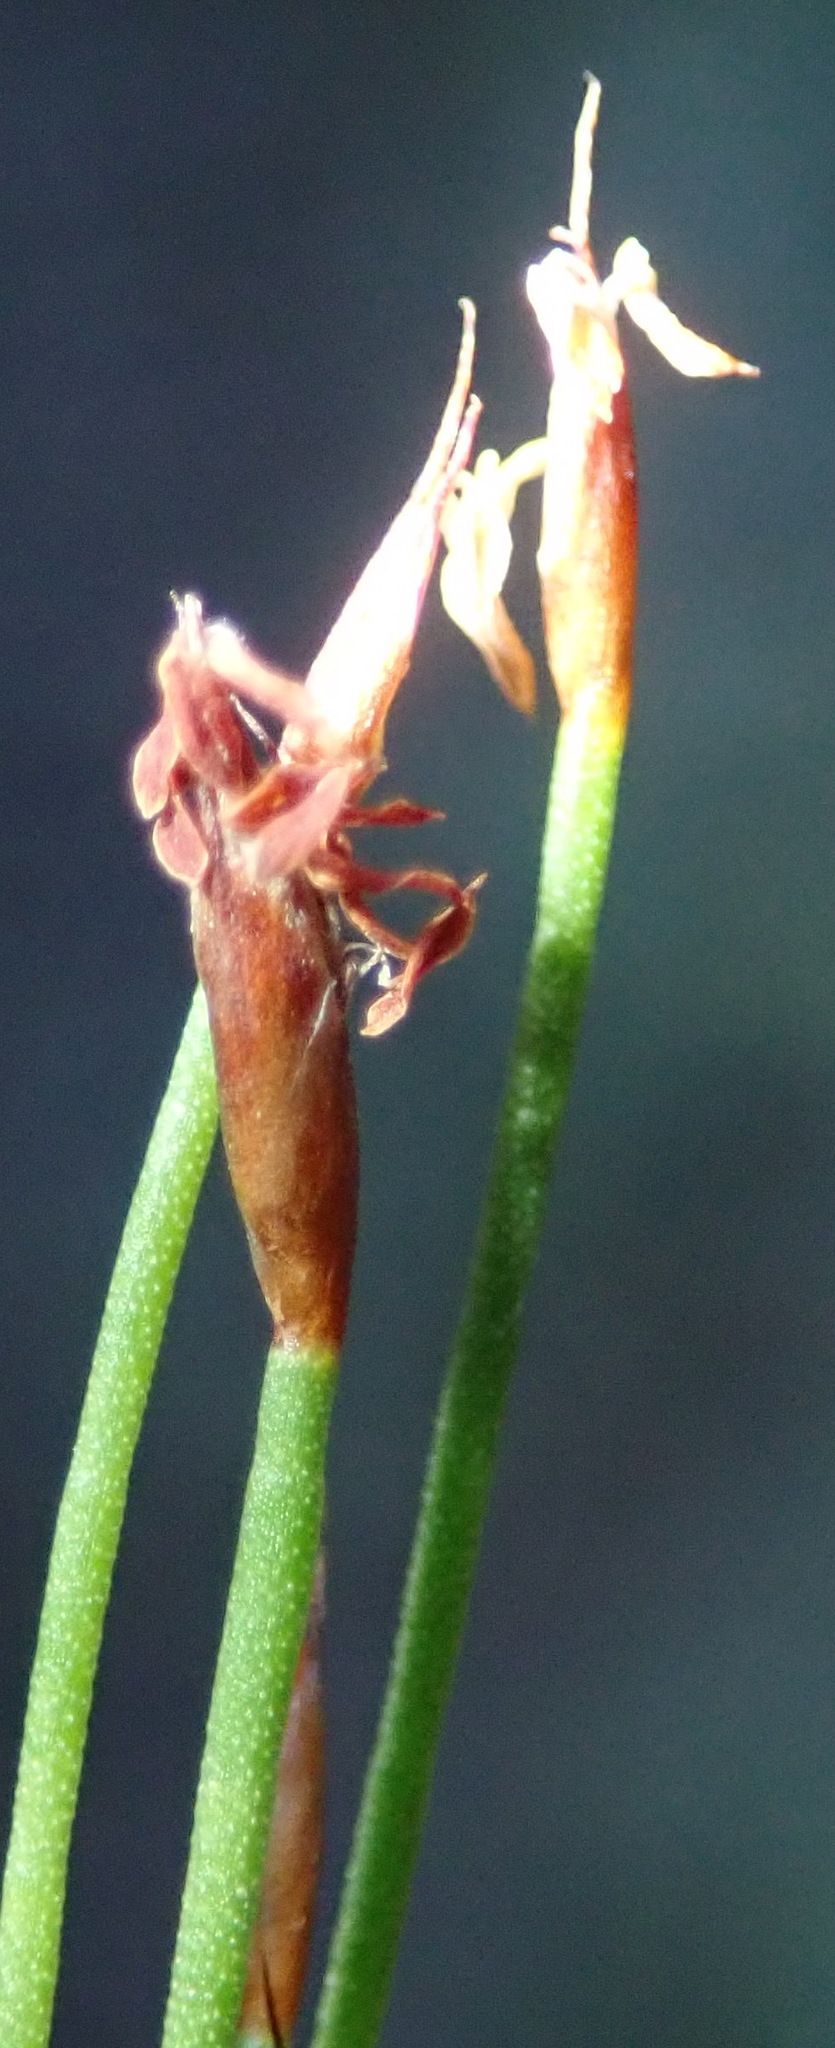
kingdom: Plantae
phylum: Tracheophyta
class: Liliopsida
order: Poales
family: Restionaceae
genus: Restio
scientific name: Restio leptoclados
